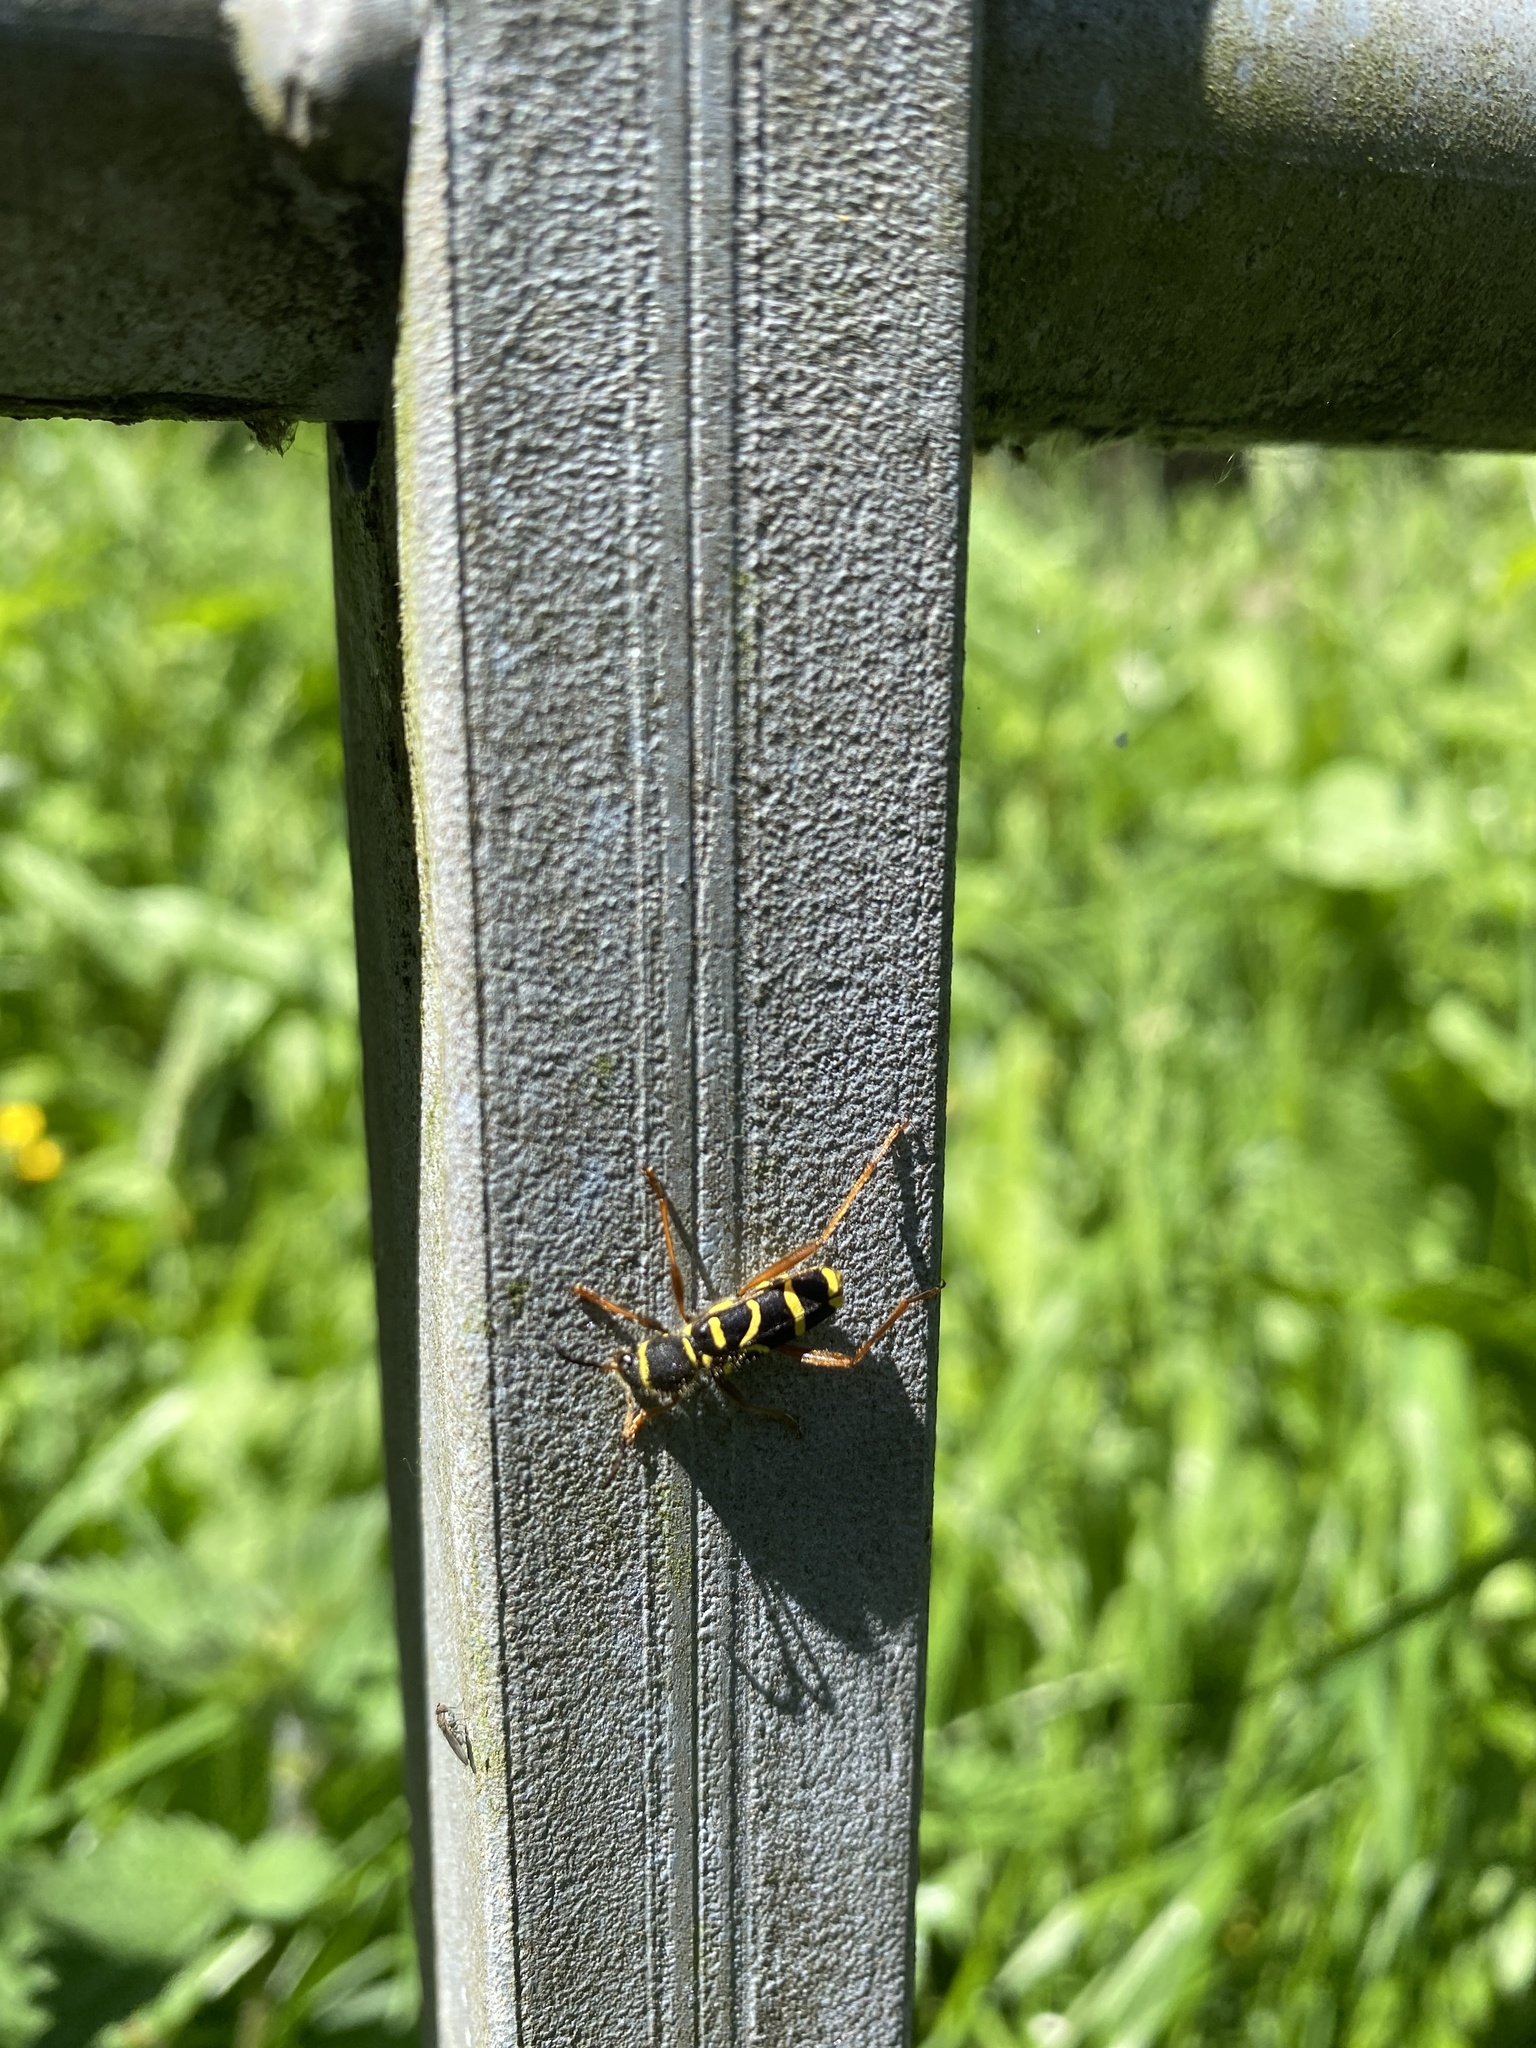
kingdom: Animalia
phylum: Arthropoda
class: Insecta
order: Coleoptera
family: Cerambycidae
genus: Clytus
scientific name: Clytus arietis
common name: Wasp beetle
